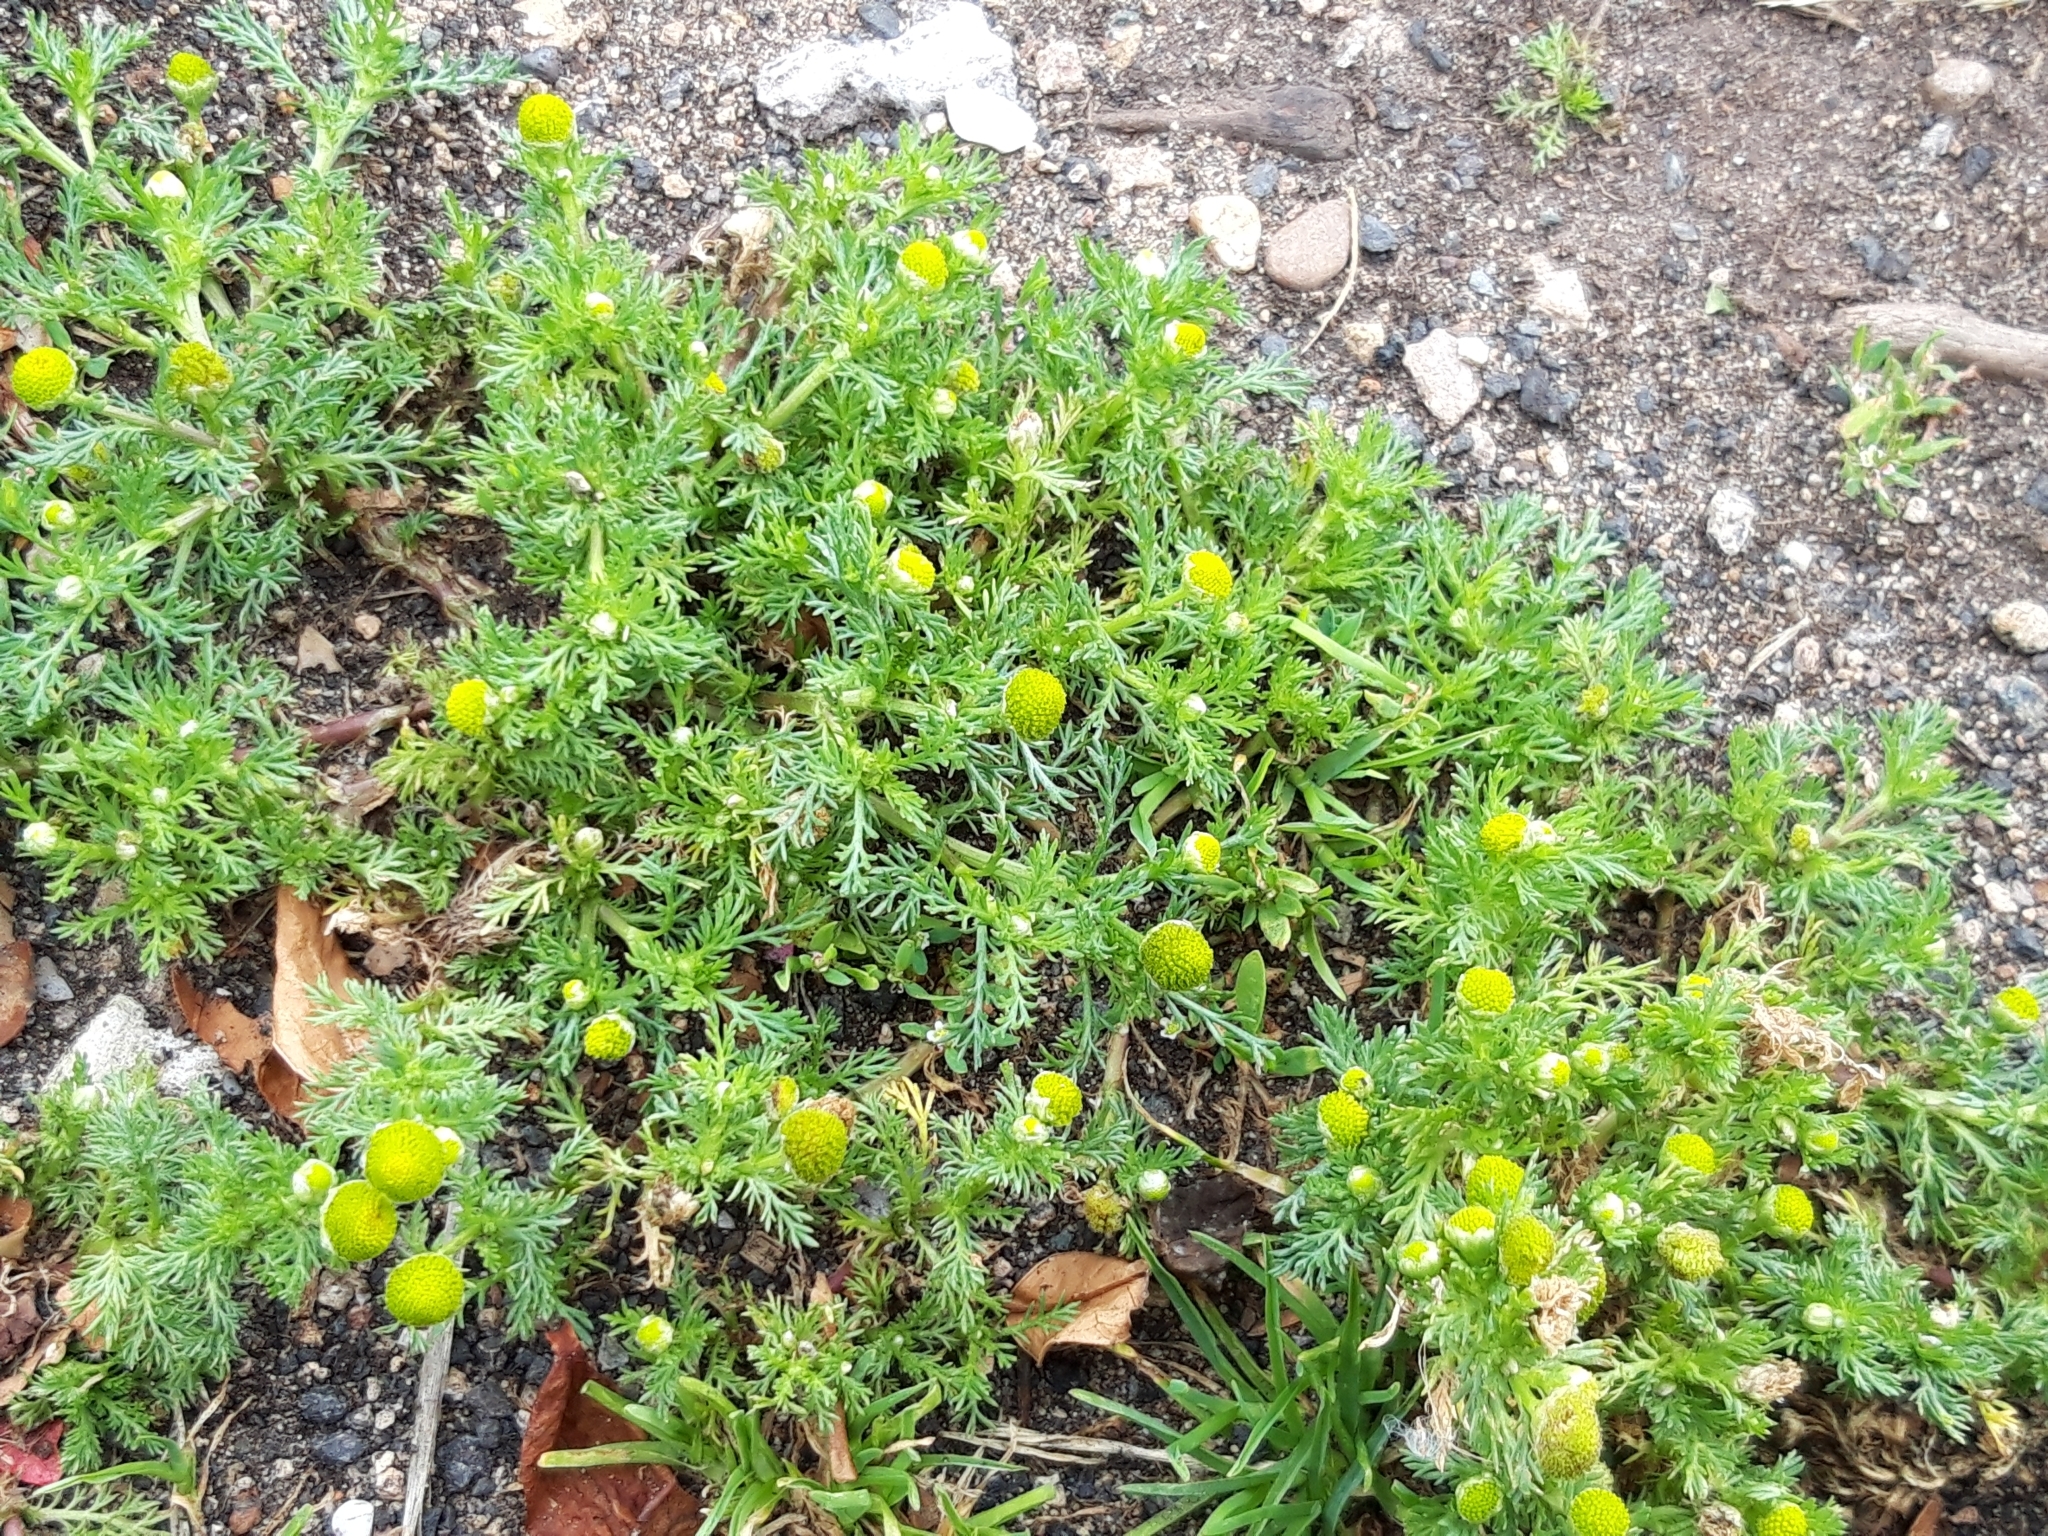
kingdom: Plantae
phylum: Tracheophyta
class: Magnoliopsida
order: Asterales
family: Asteraceae
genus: Matricaria
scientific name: Matricaria discoidea
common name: Disc mayweed
